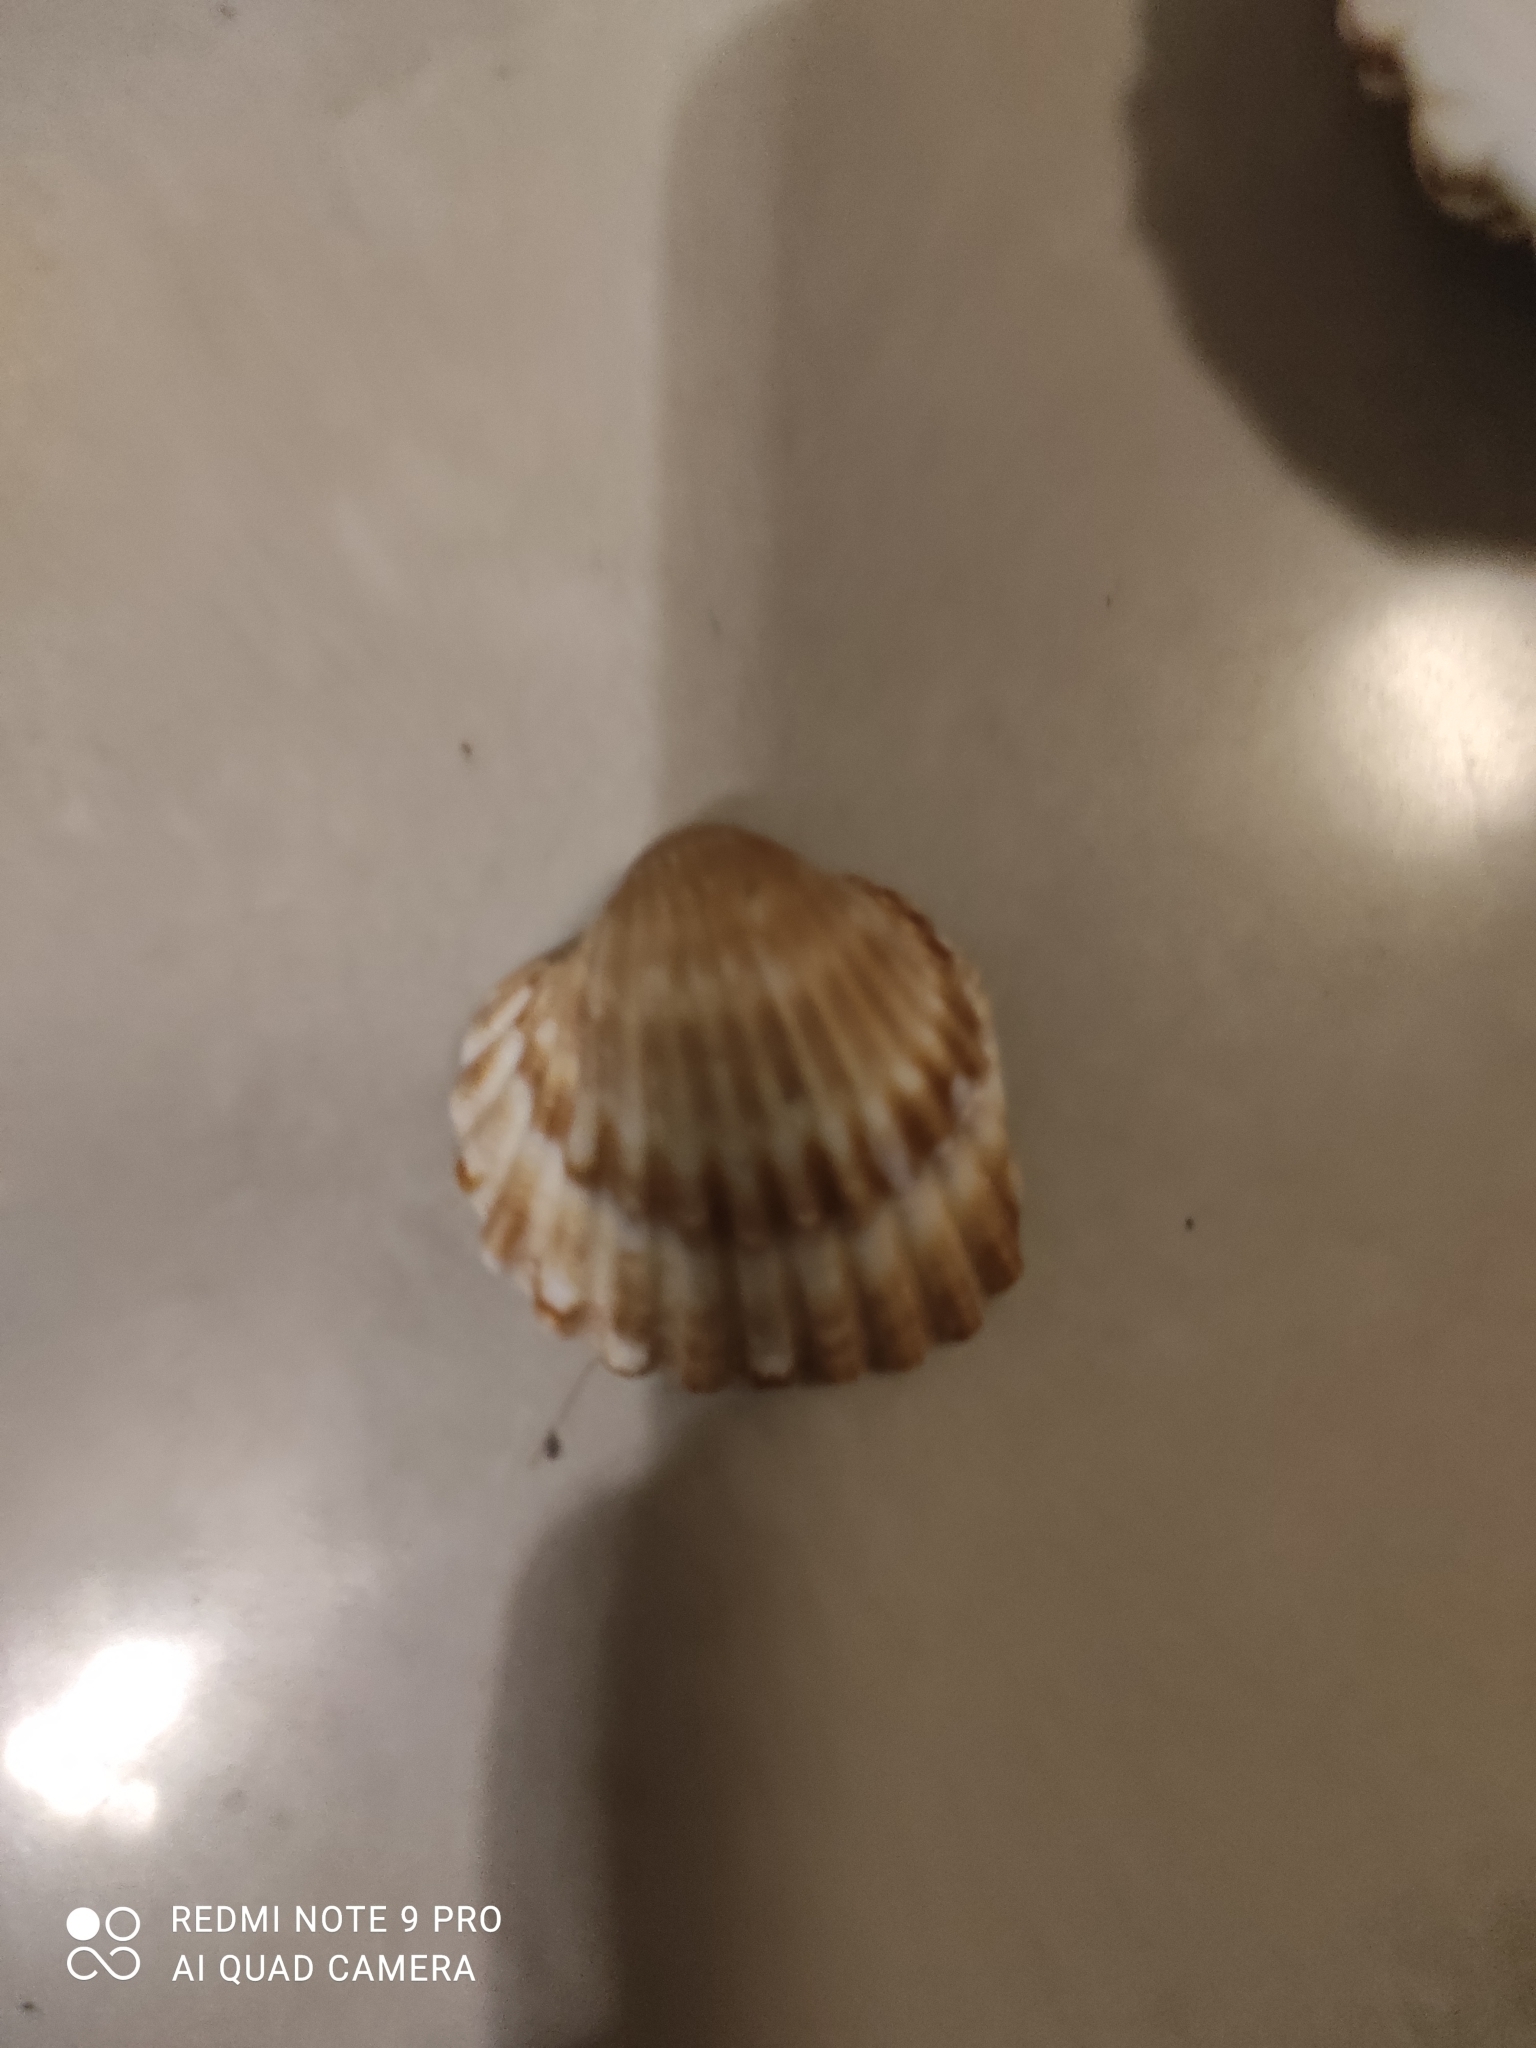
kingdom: Animalia
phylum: Mollusca
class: Bivalvia
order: Cardiida
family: Cardiidae
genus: Acanthocardia
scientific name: Acanthocardia tuberculata
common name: Rough cockle
